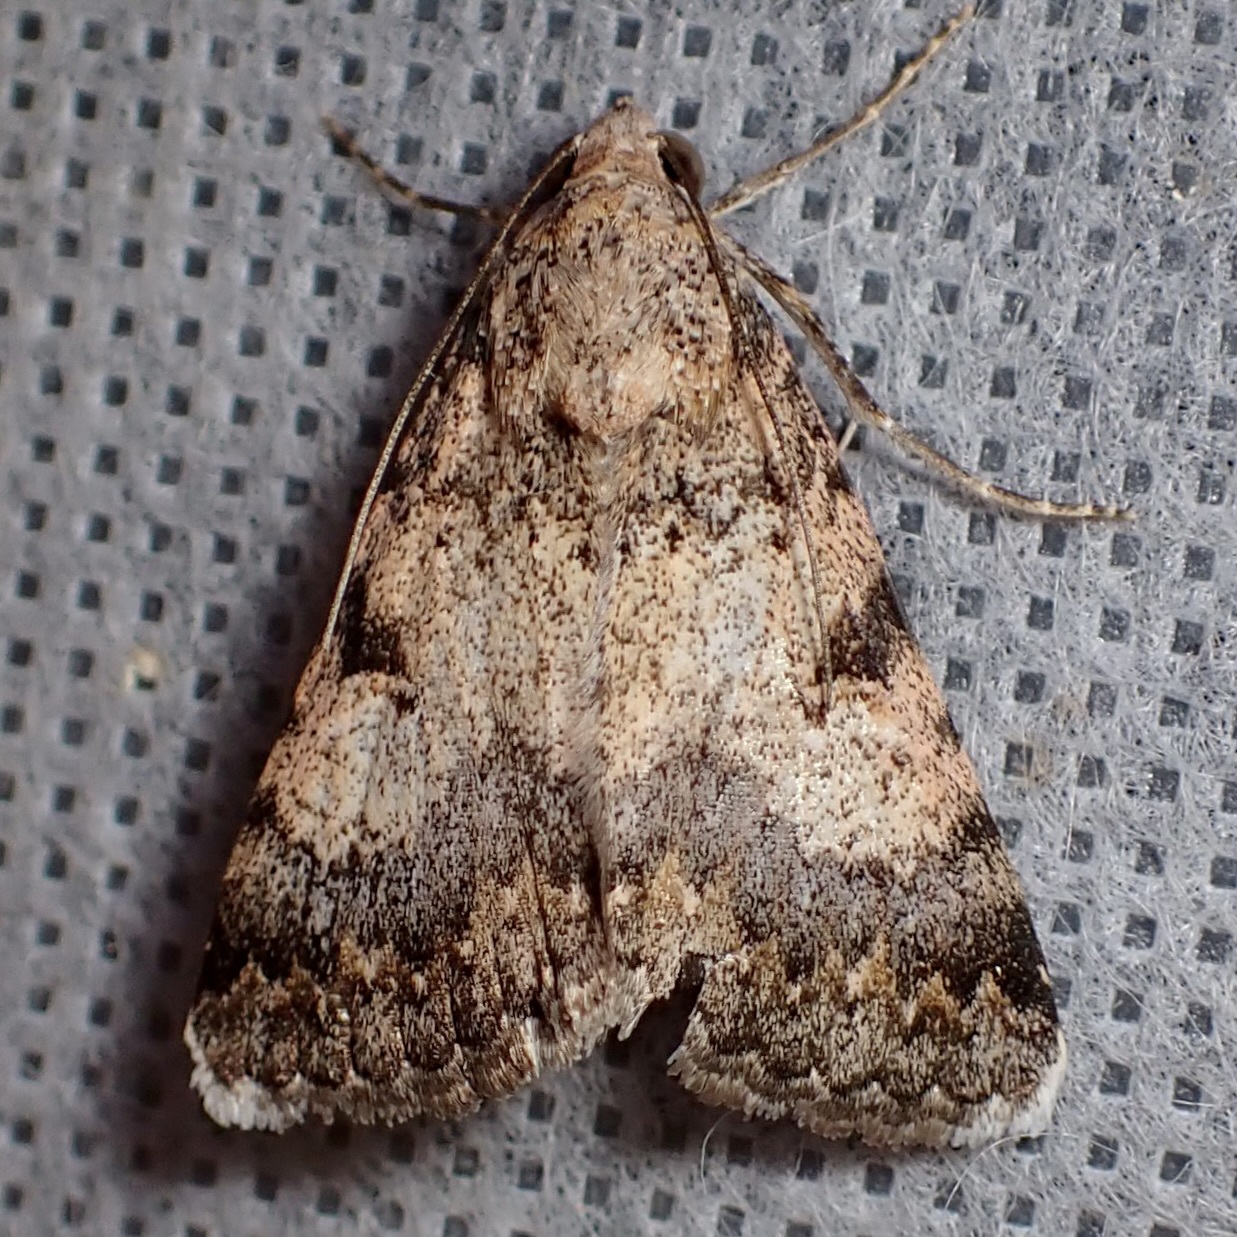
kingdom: Animalia
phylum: Arthropoda
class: Insecta
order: Lepidoptera
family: Erebidae
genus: Melipotis
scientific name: Melipotis jucunda
